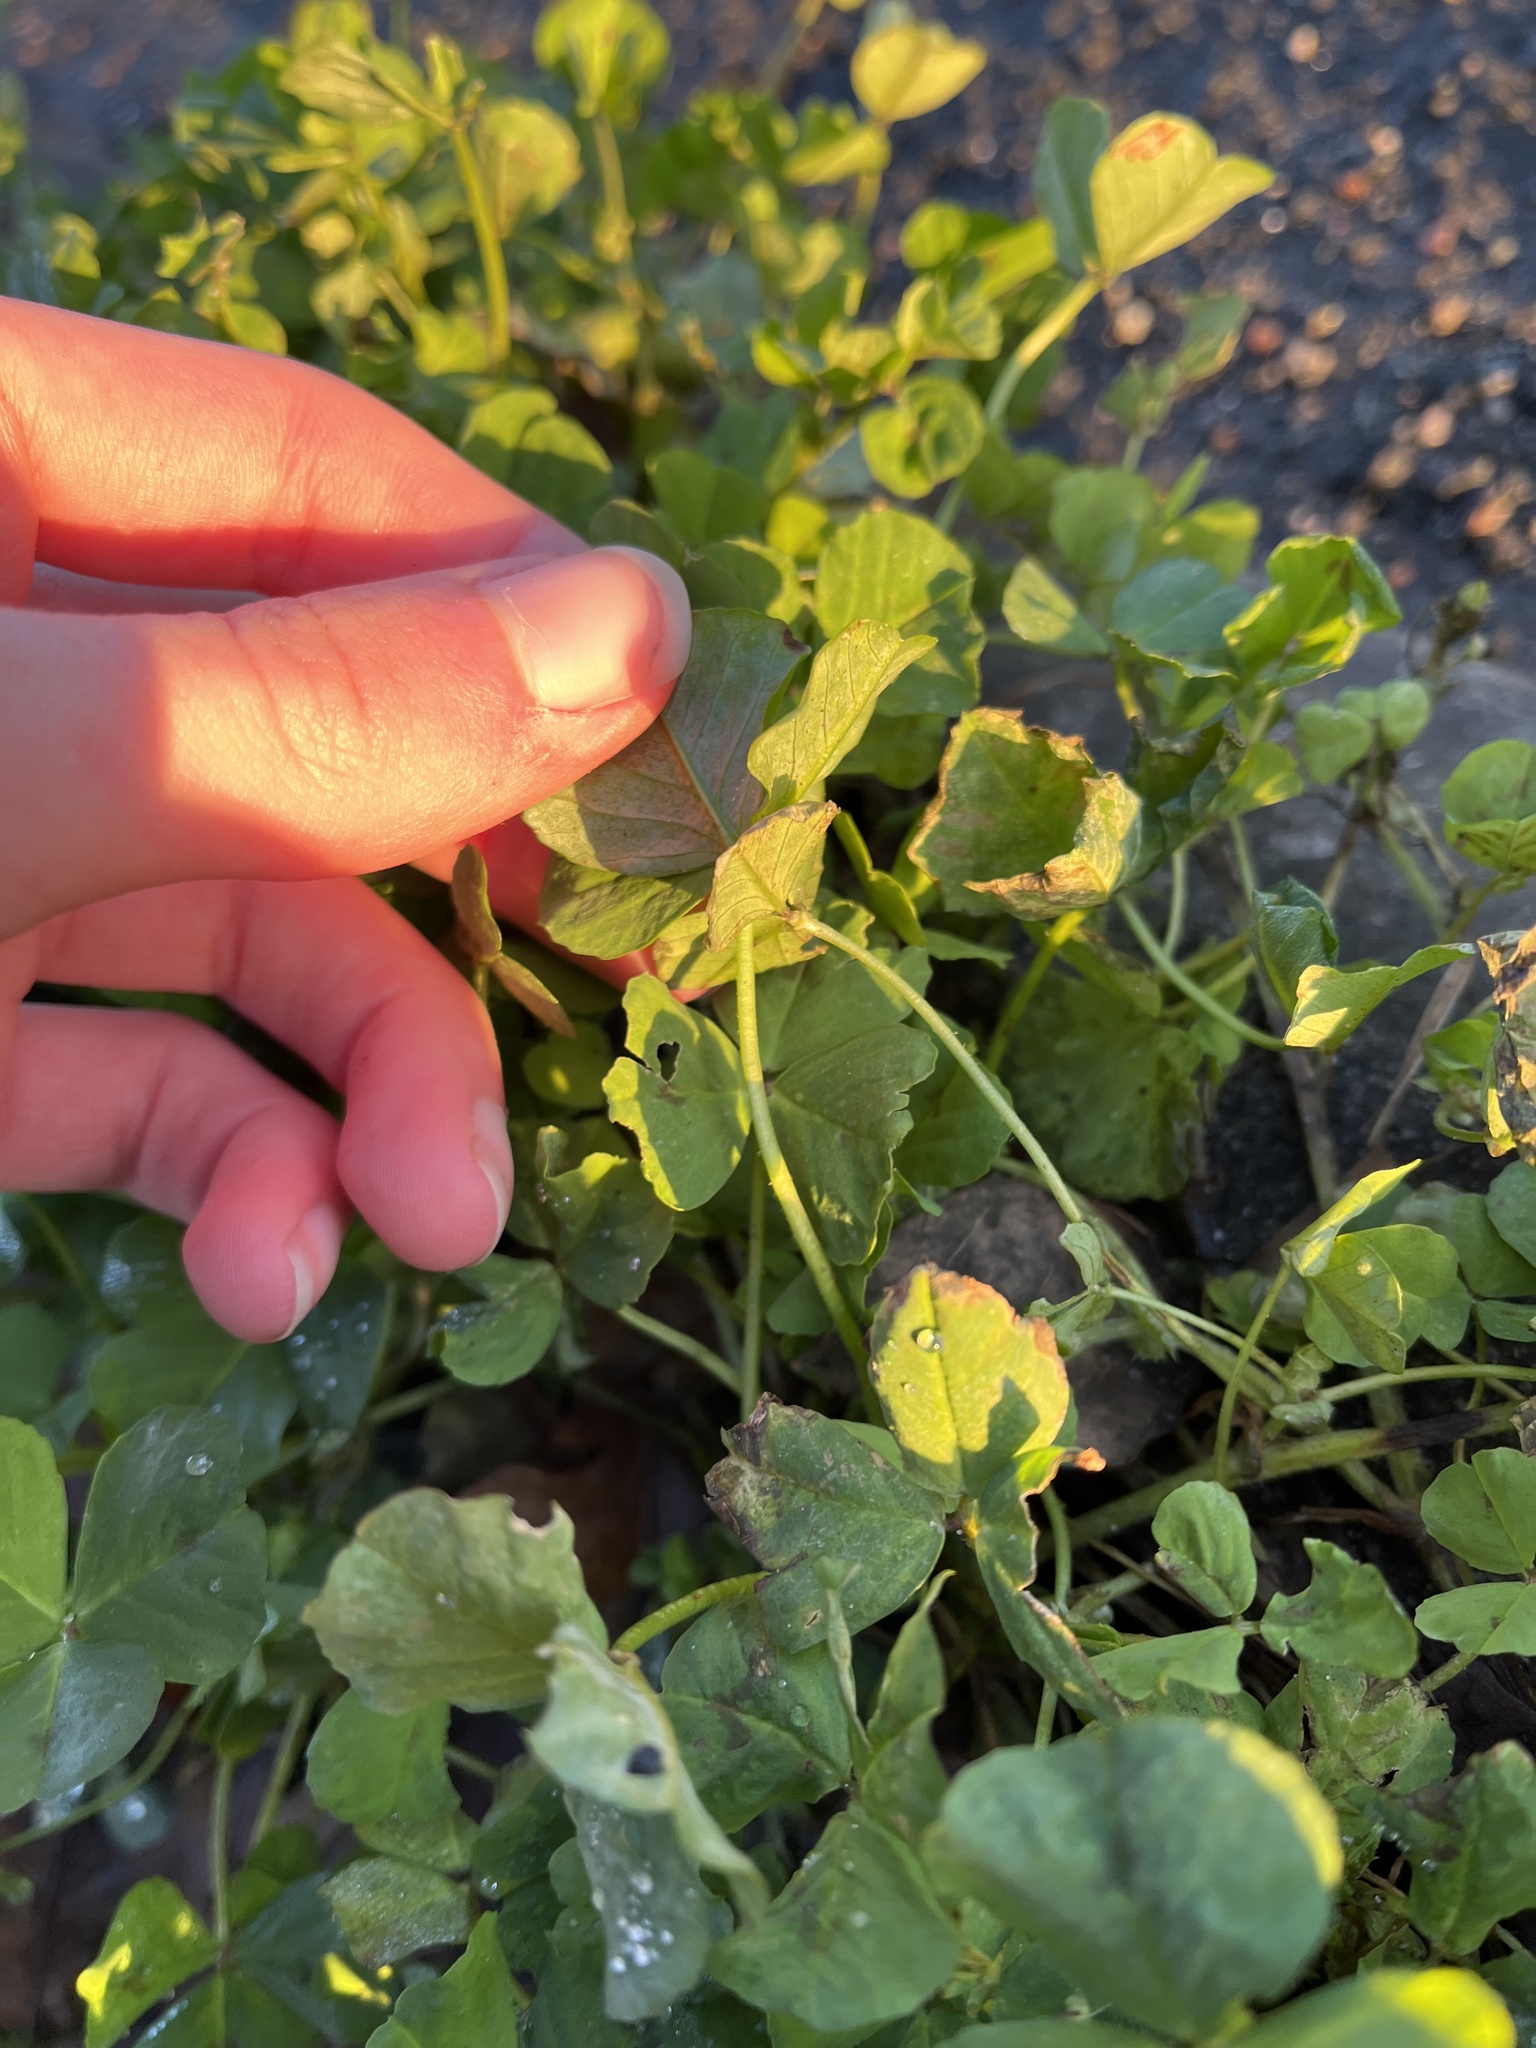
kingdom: Plantae
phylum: Tracheophyta
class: Magnoliopsida
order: Fabales
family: Fabaceae
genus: Medicago
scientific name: Medicago arabica
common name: Spotted medick
